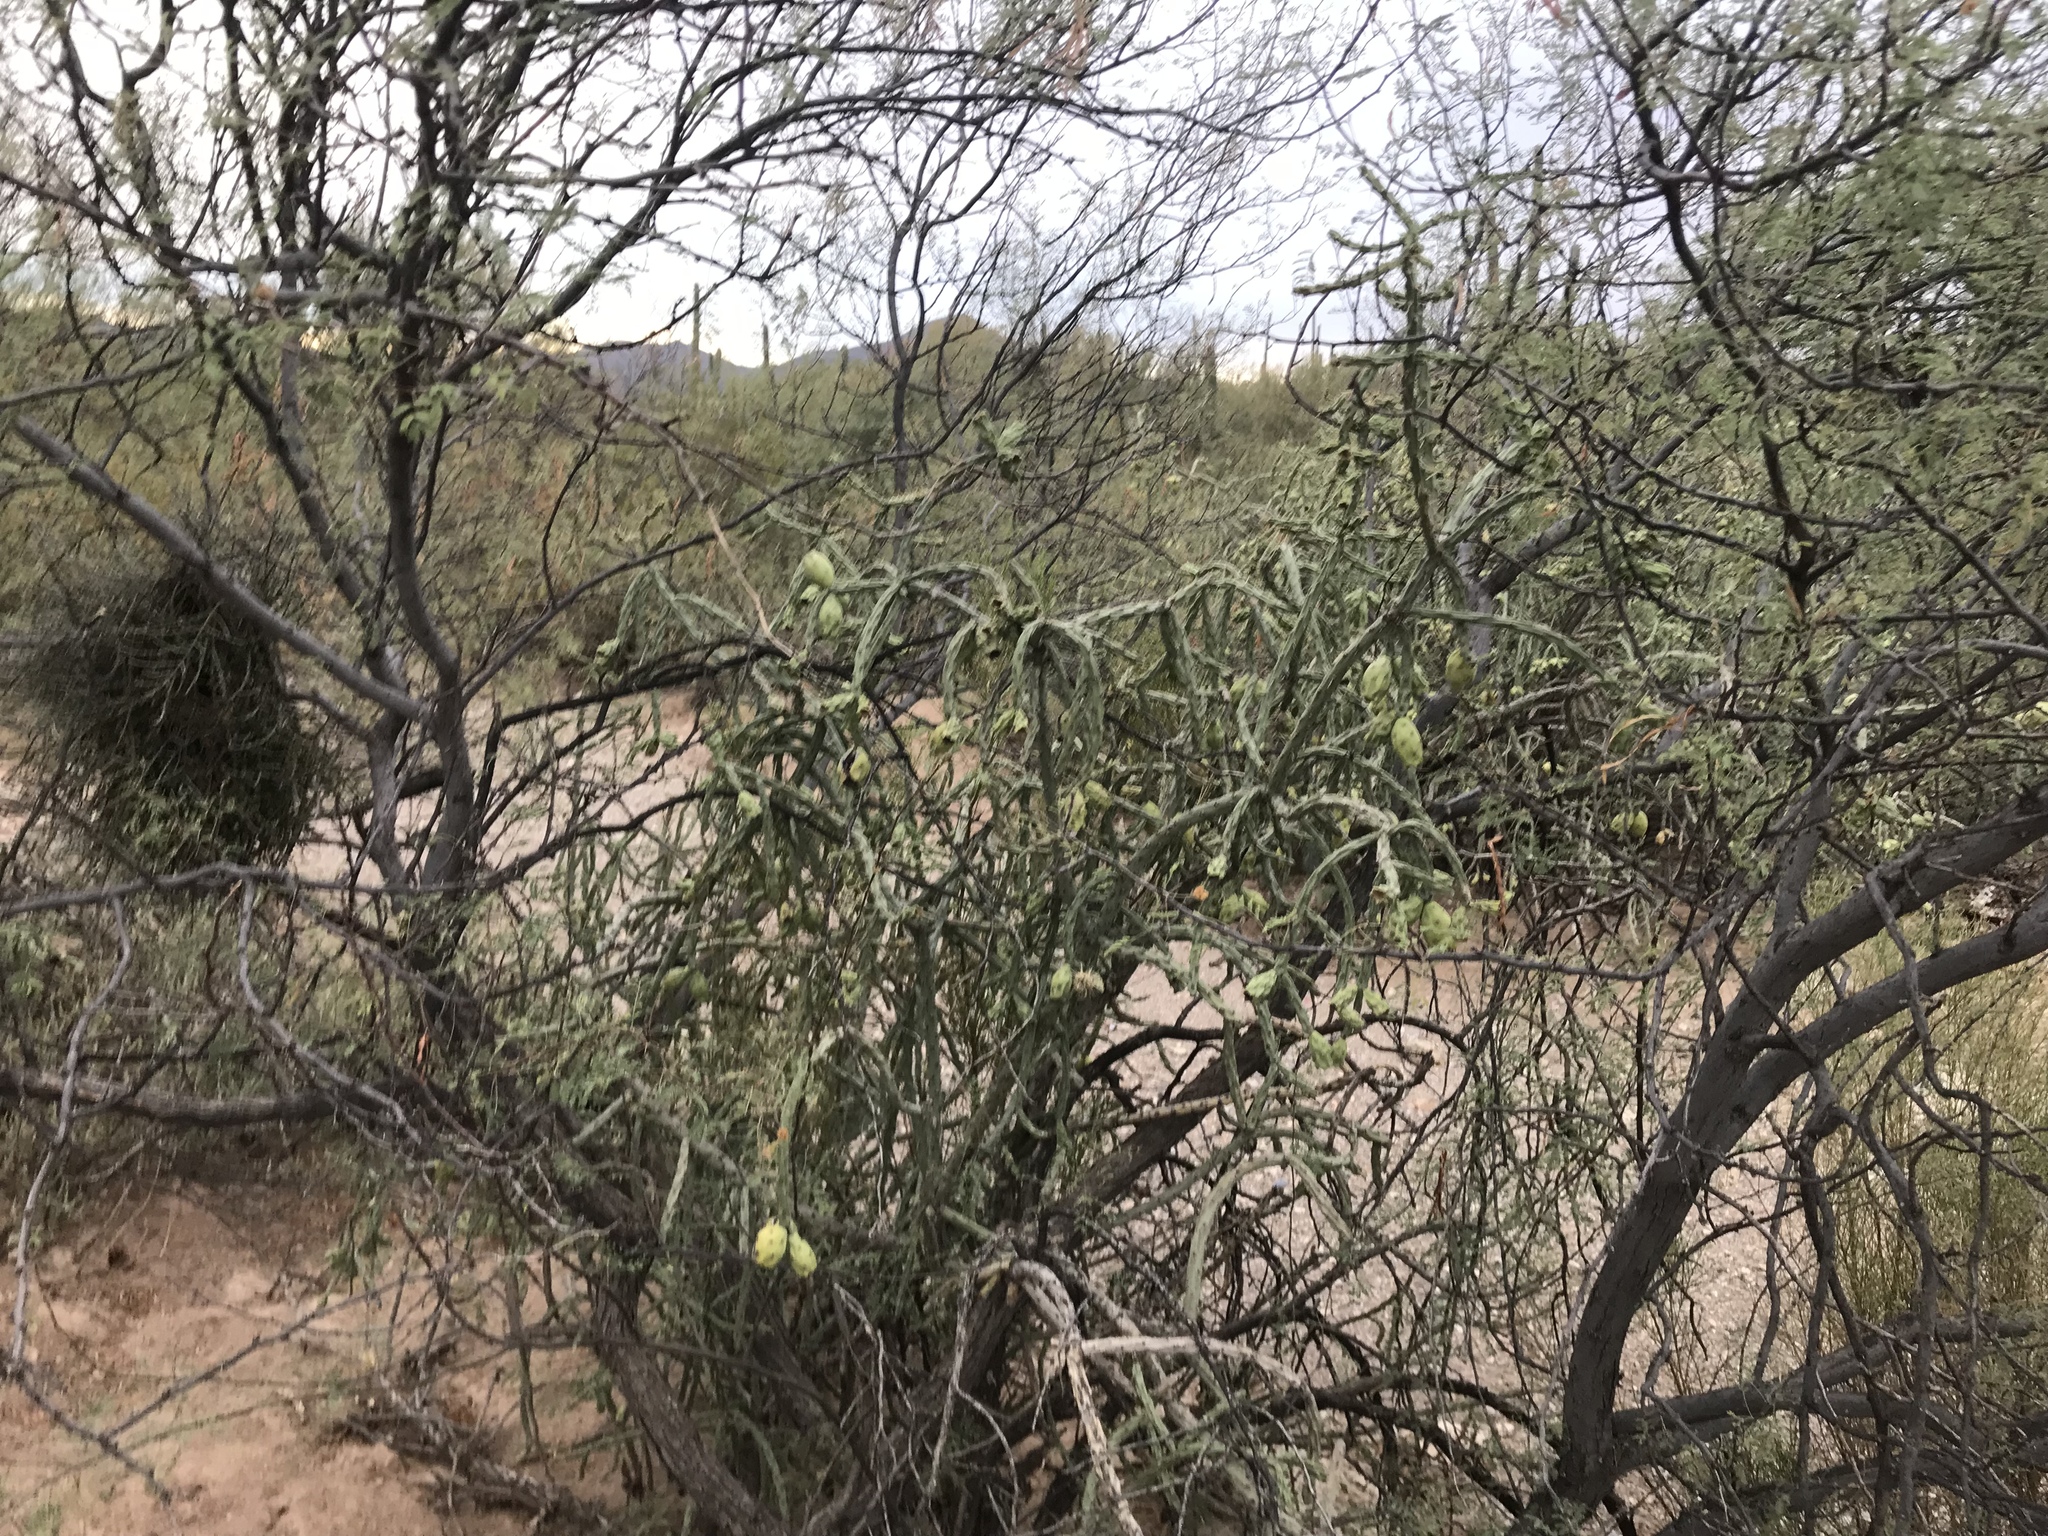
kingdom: Plantae
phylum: Tracheophyta
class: Magnoliopsida
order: Caryophyllales
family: Cactaceae
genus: Cylindropuntia
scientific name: Cylindropuntia thurberi
